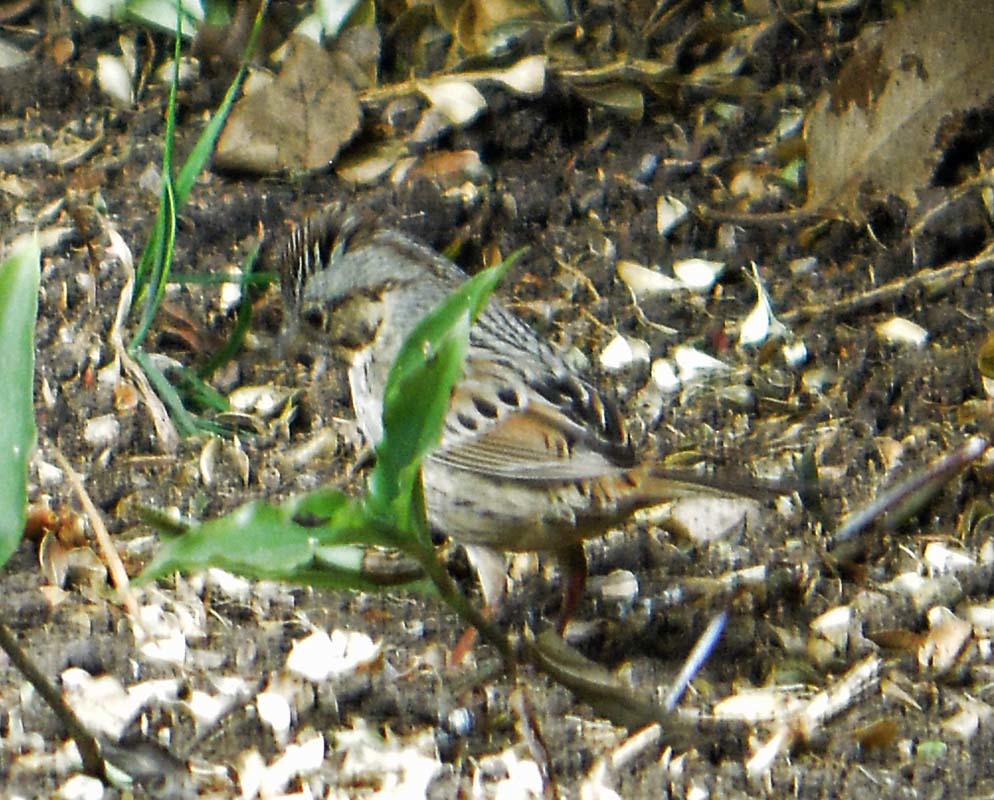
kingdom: Animalia
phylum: Chordata
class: Aves
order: Passeriformes
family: Passerellidae
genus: Melospiza
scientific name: Melospiza lincolnii
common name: Lincoln's sparrow
